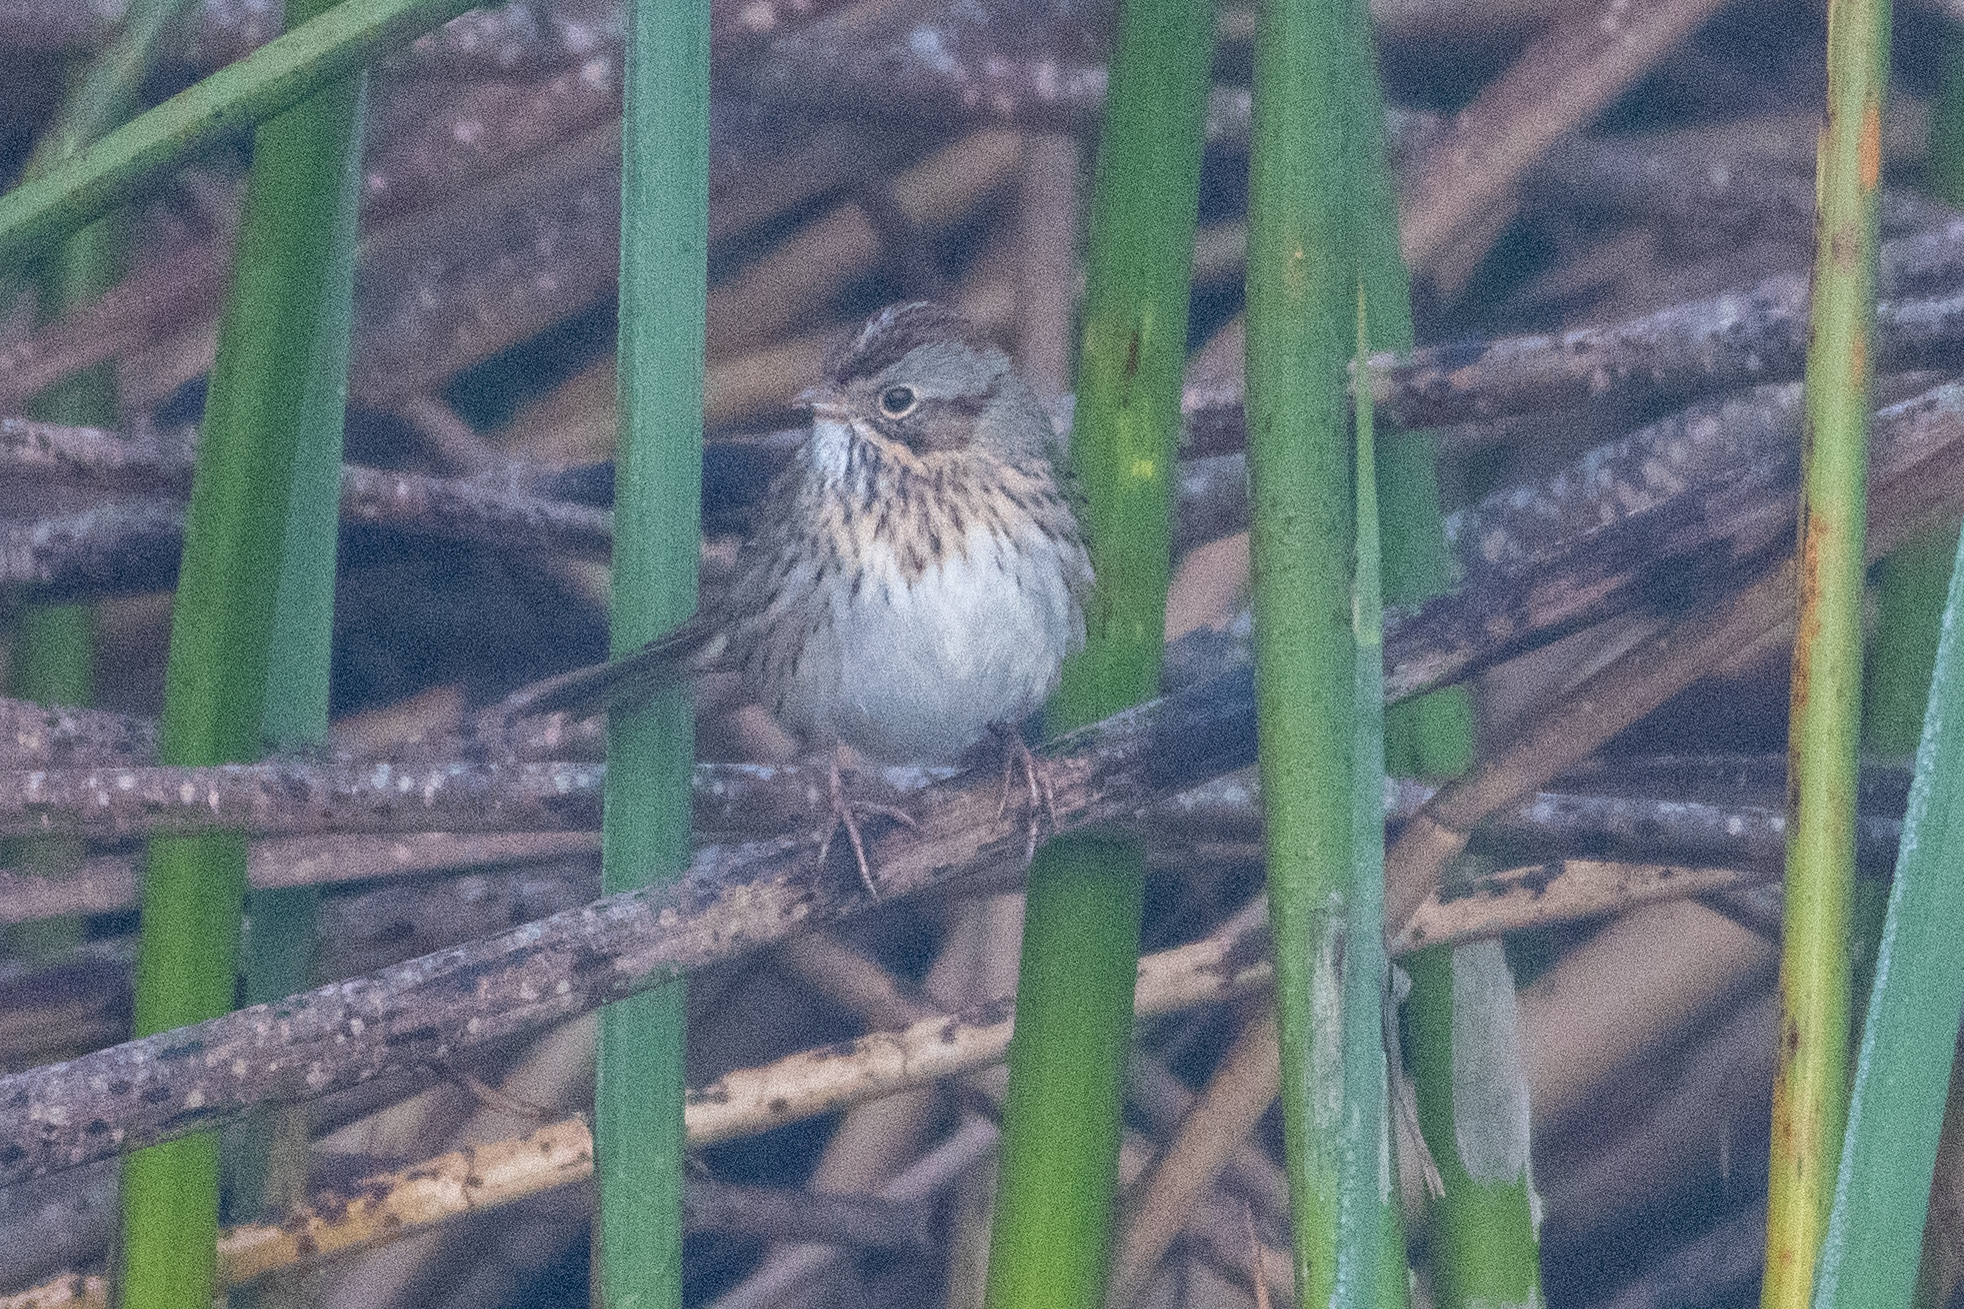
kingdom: Animalia
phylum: Chordata
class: Aves
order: Passeriformes
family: Passerellidae
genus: Melospiza
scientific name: Melospiza lincolnii
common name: Lincoln's sparrow
